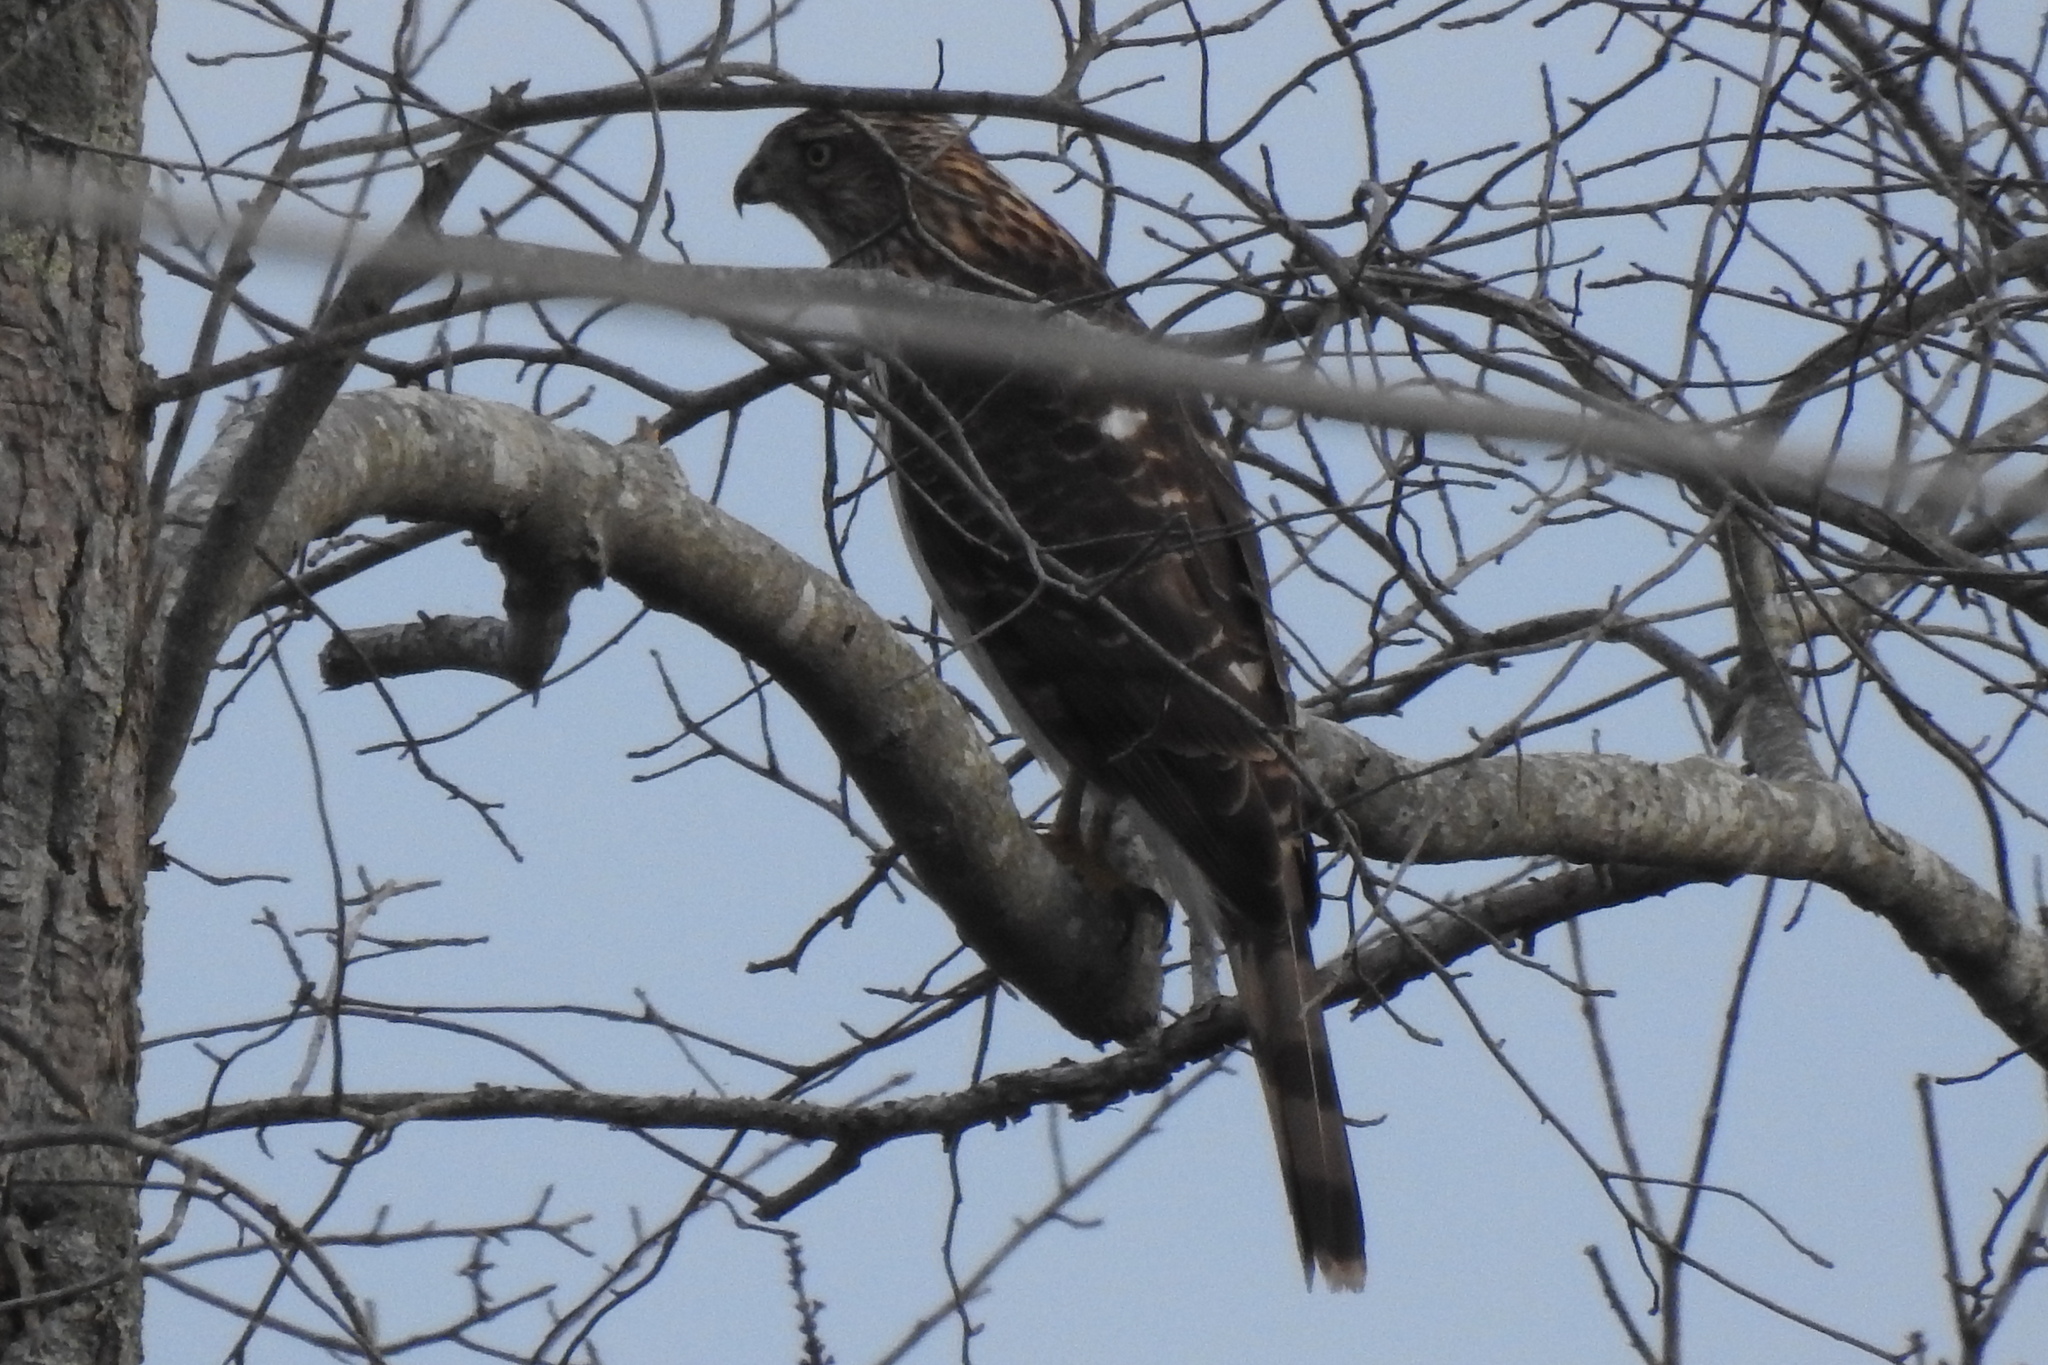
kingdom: Animalia
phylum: Chordata
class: Aves
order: Accipitriformes
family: Accipitridae
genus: Accipiter
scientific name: Accipiter cooperii
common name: Cooper's hawk
